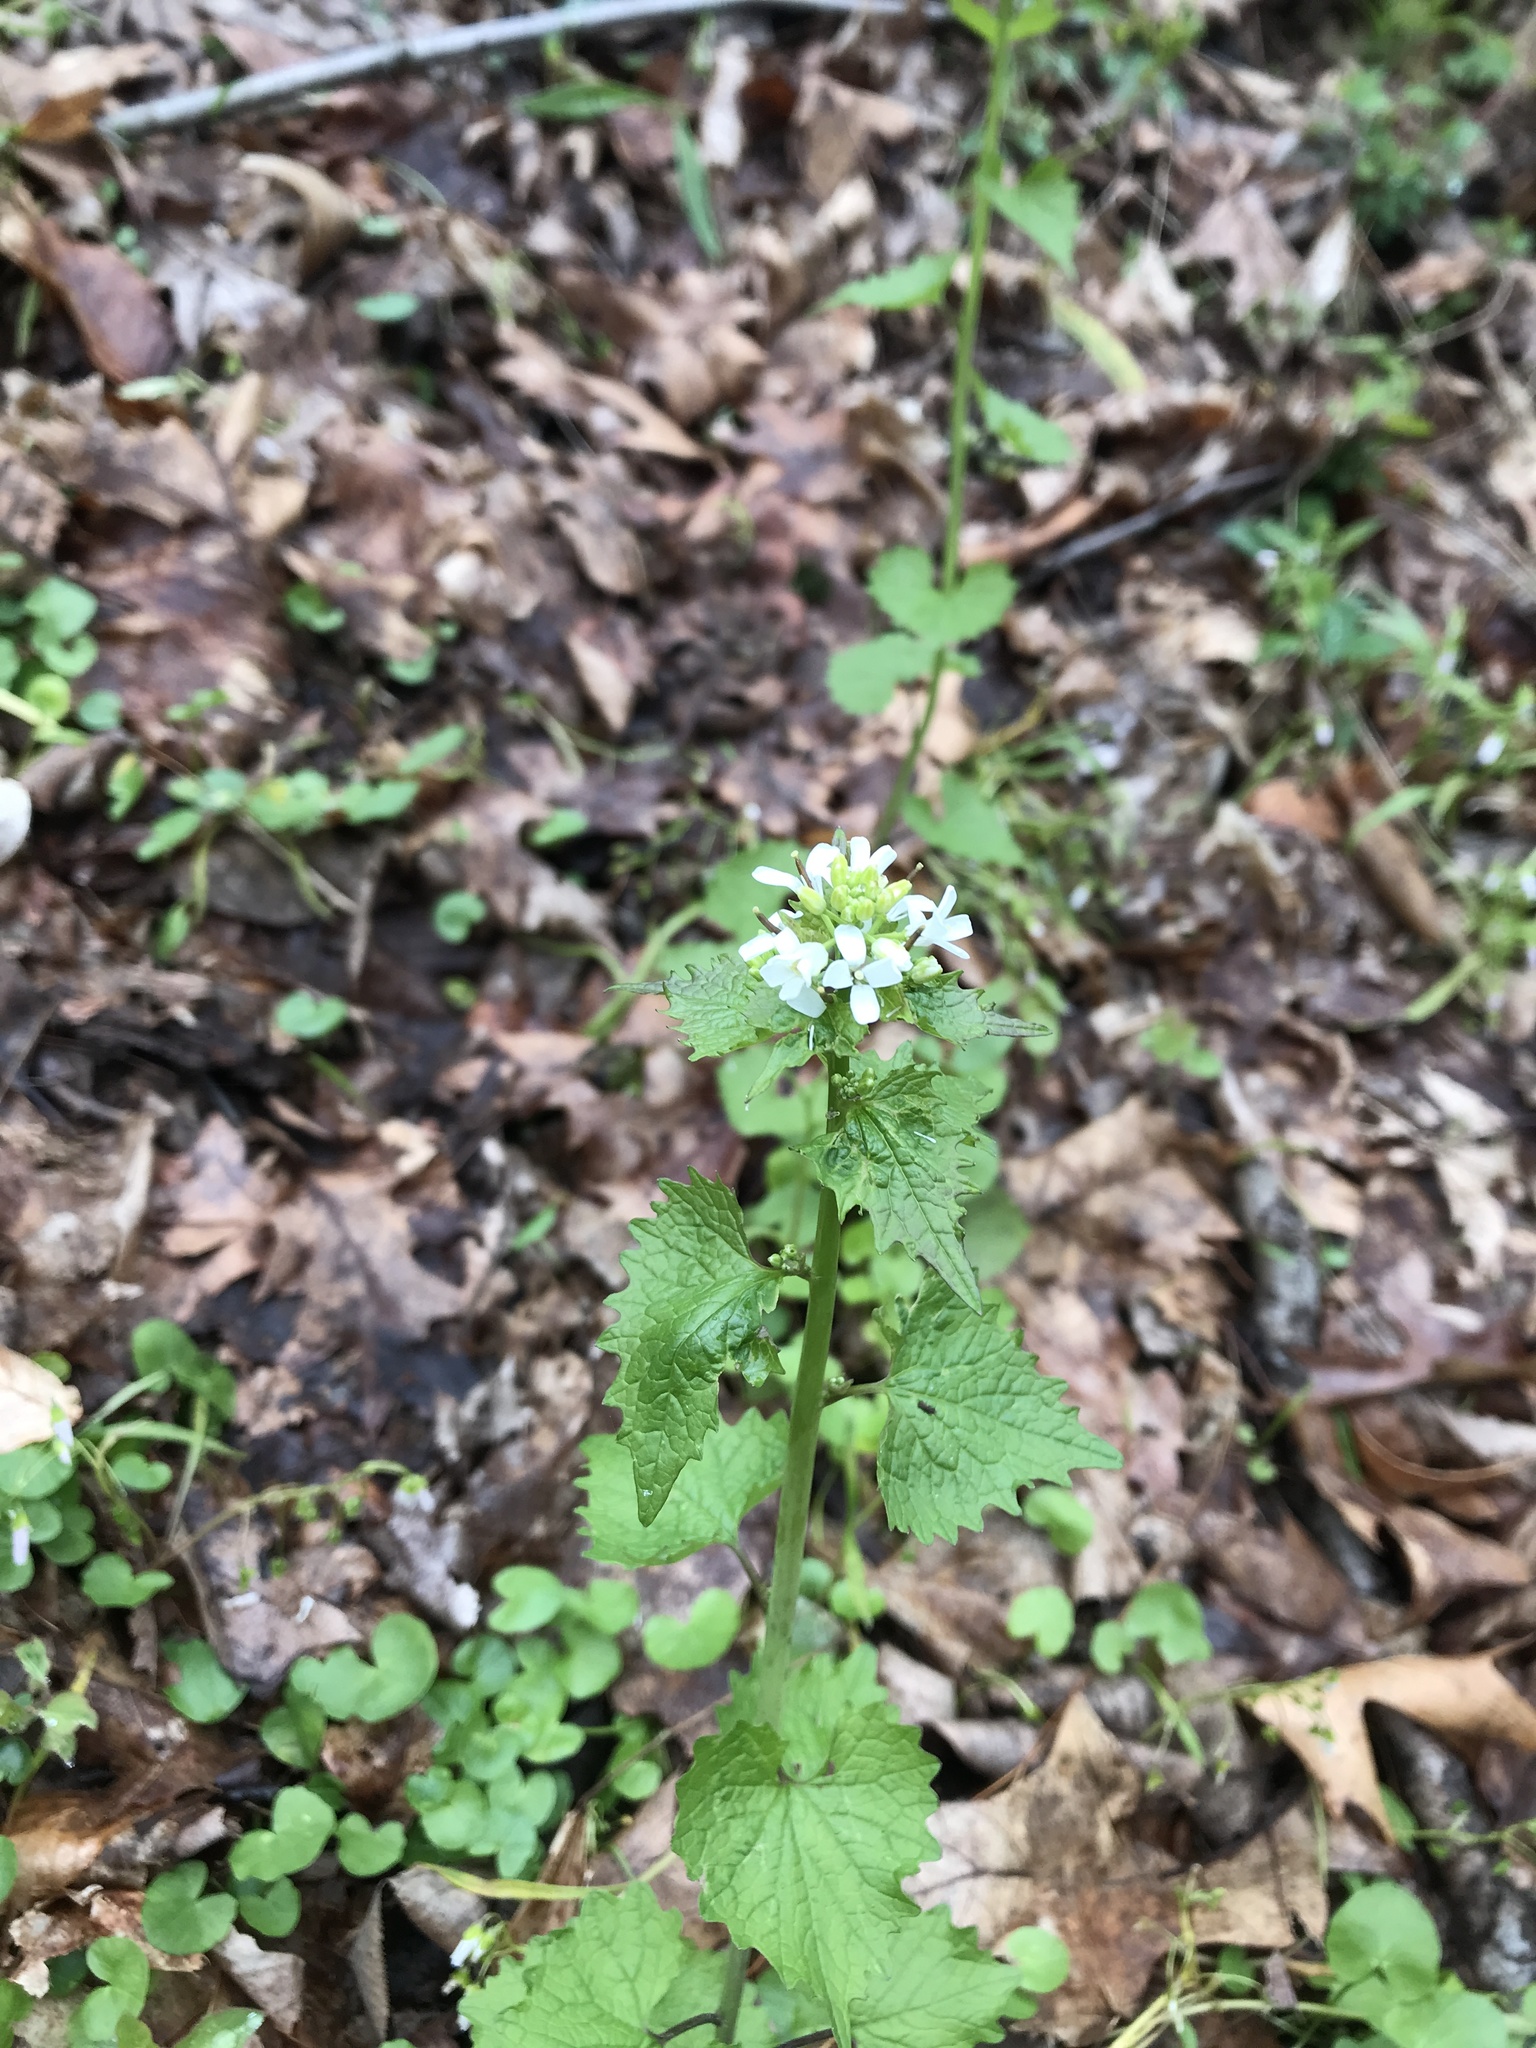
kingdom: Plantae
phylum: Tracheophyta
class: Magnoliopsida
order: Brassicales
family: Brassicaceae
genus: Alliaria
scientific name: Alliaria petiolata
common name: Garlic mustard
